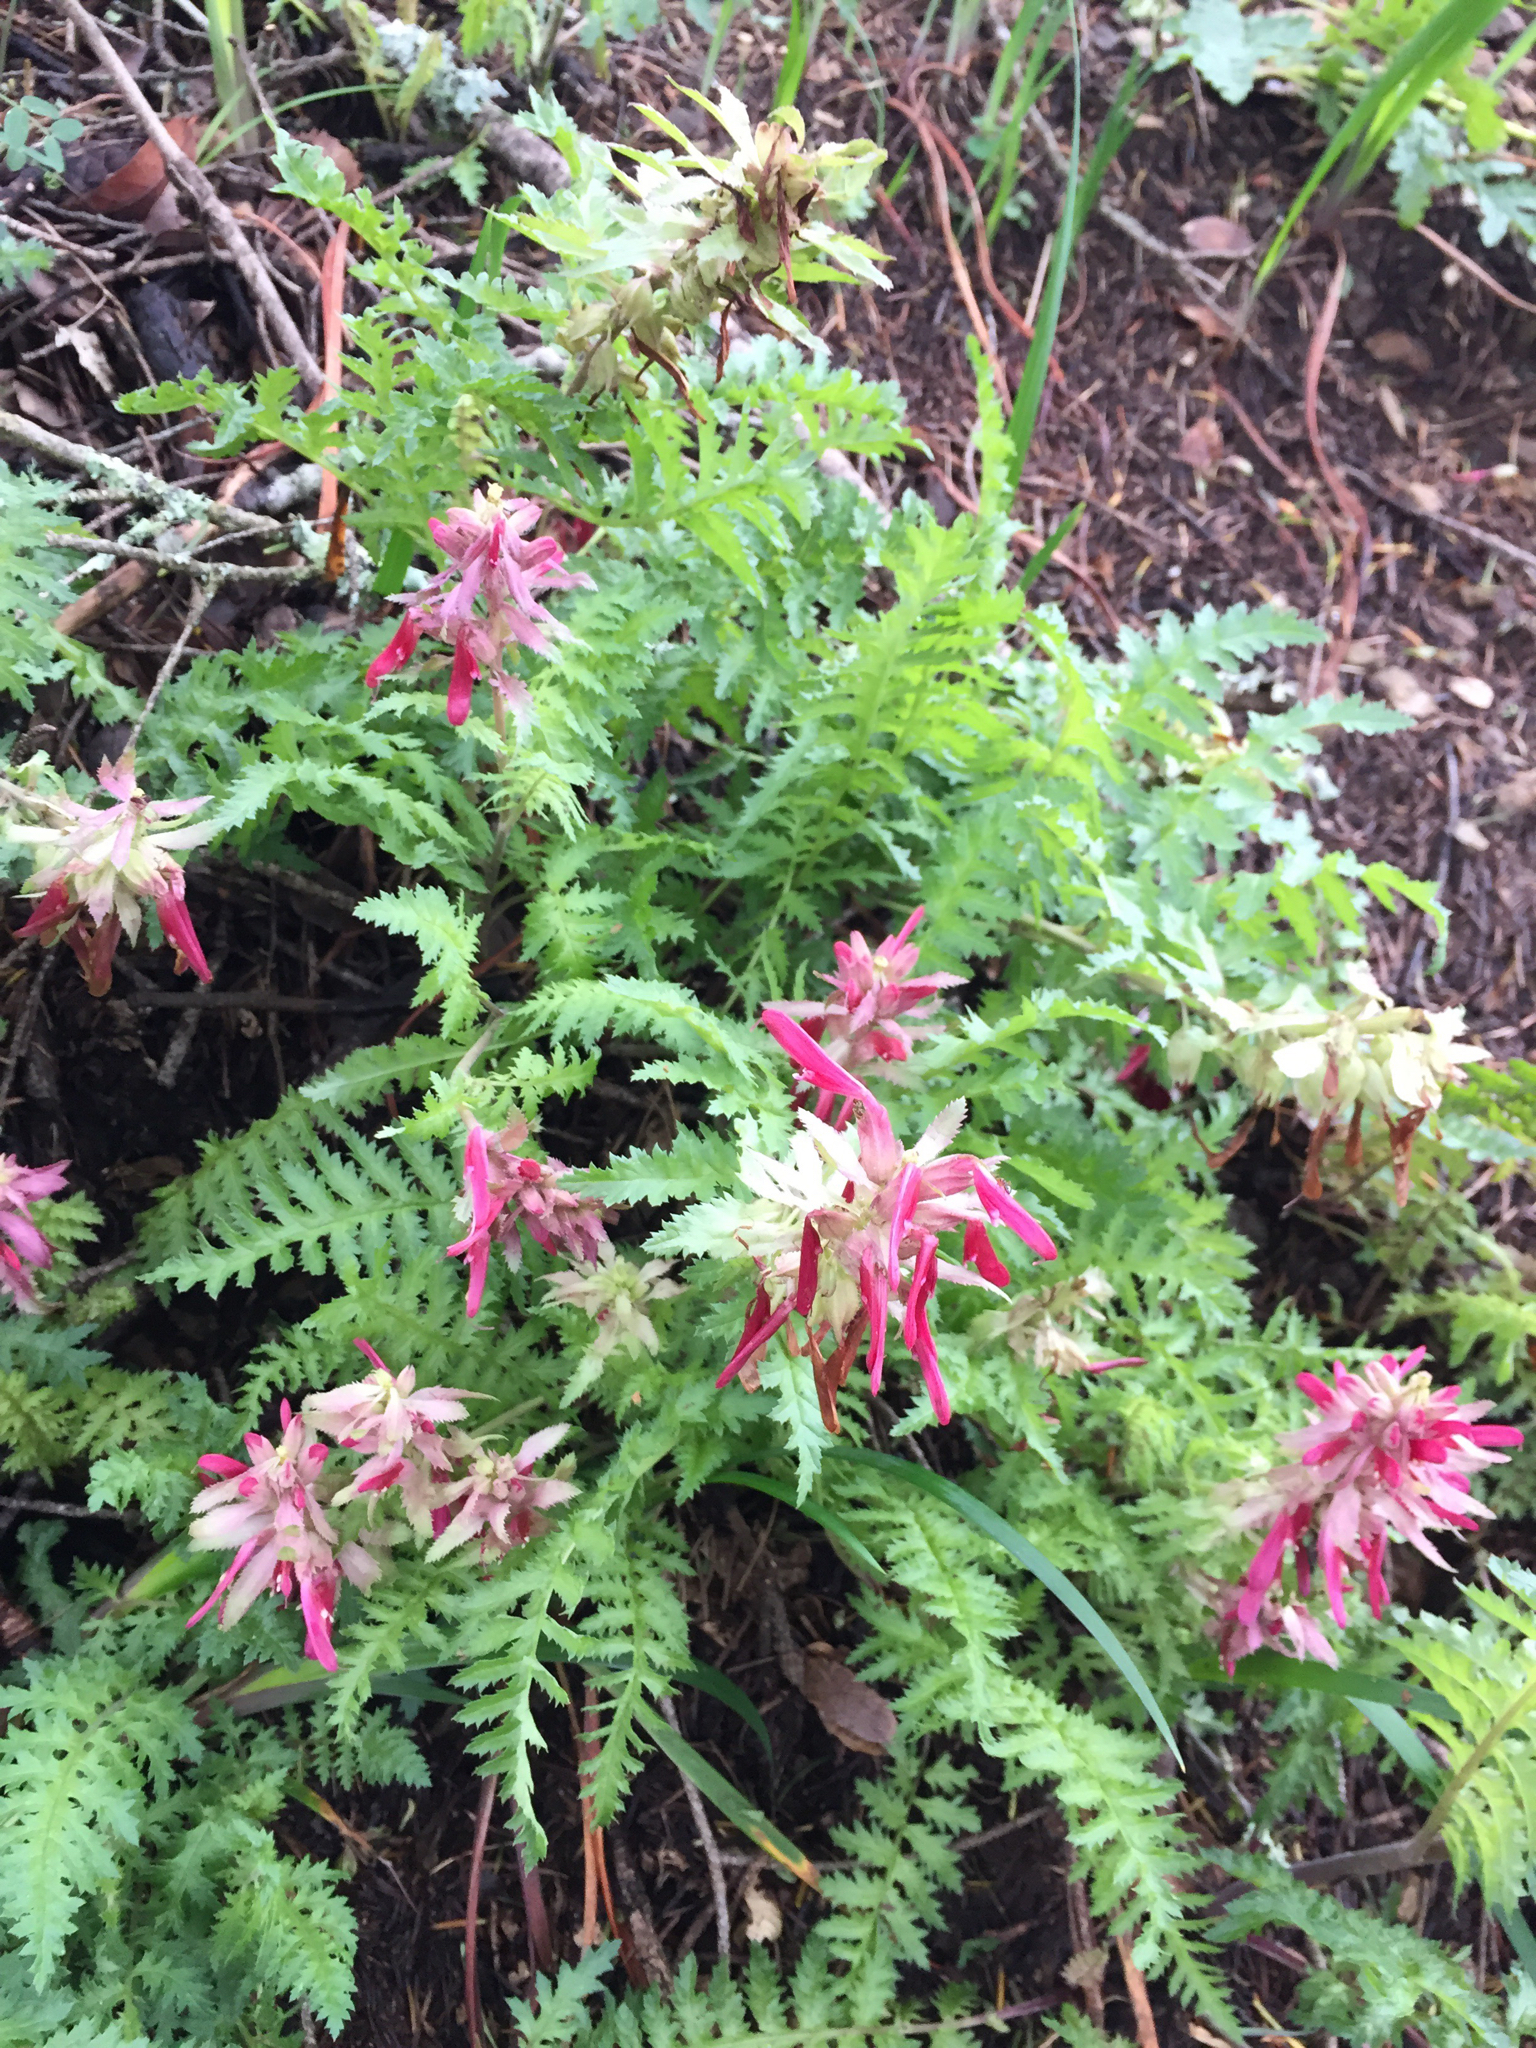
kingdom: Plantae
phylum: Tracheophyta
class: Magnoliopsida
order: Lamiales
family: Orobanchaceae
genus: Pedicularis
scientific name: Pedicularis densiflora
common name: Indian warrior
